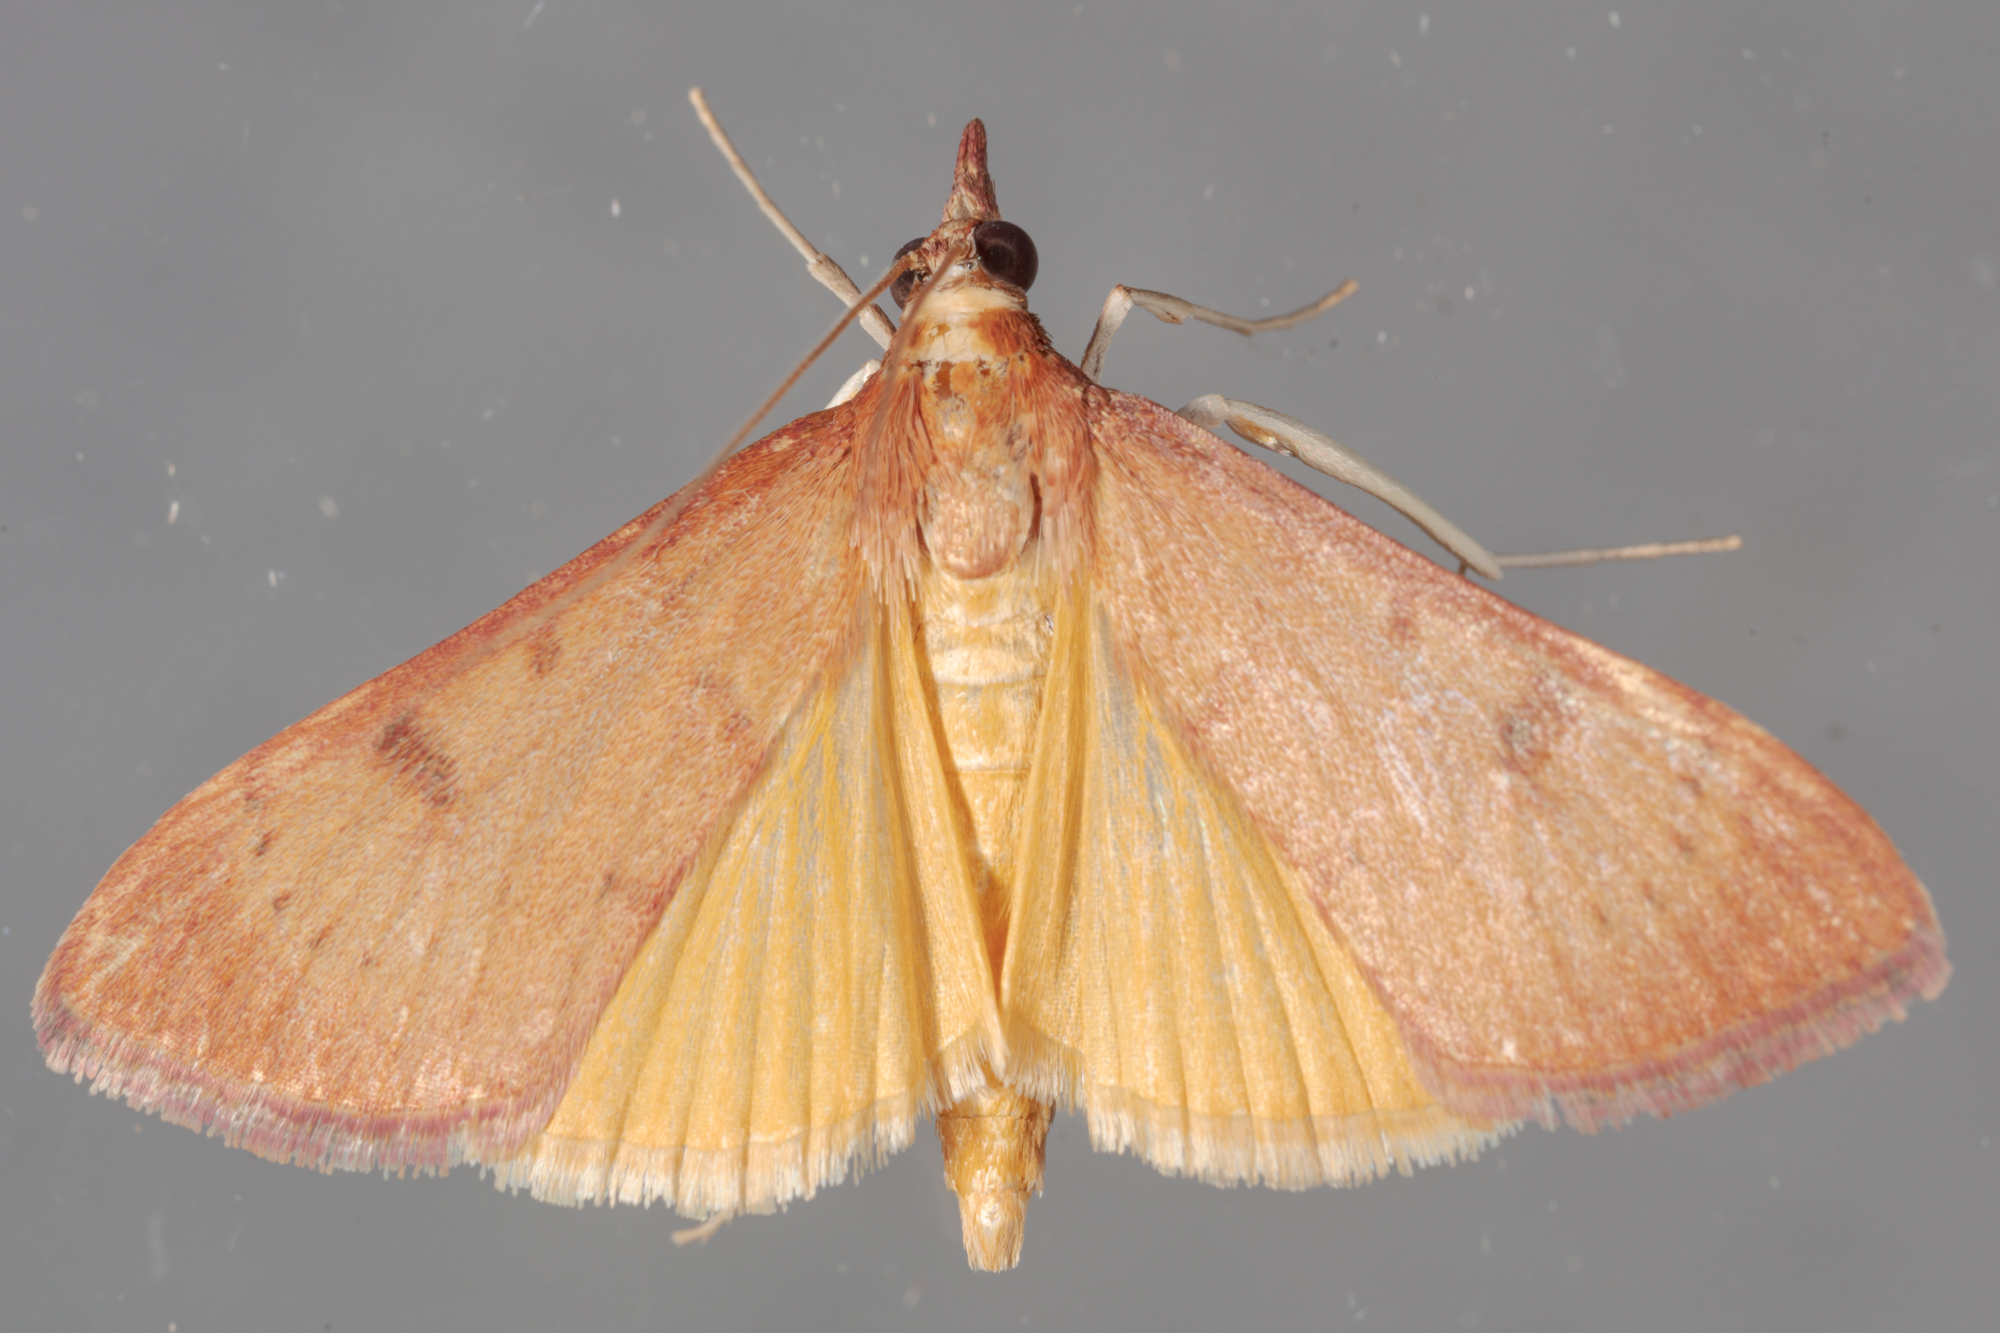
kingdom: Animalia
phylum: Arthropoda
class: Insecta
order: Lepidoptera
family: Crambidae
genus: Uresiphita
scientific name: Uresiphita reversalis
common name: Genista broom moth
